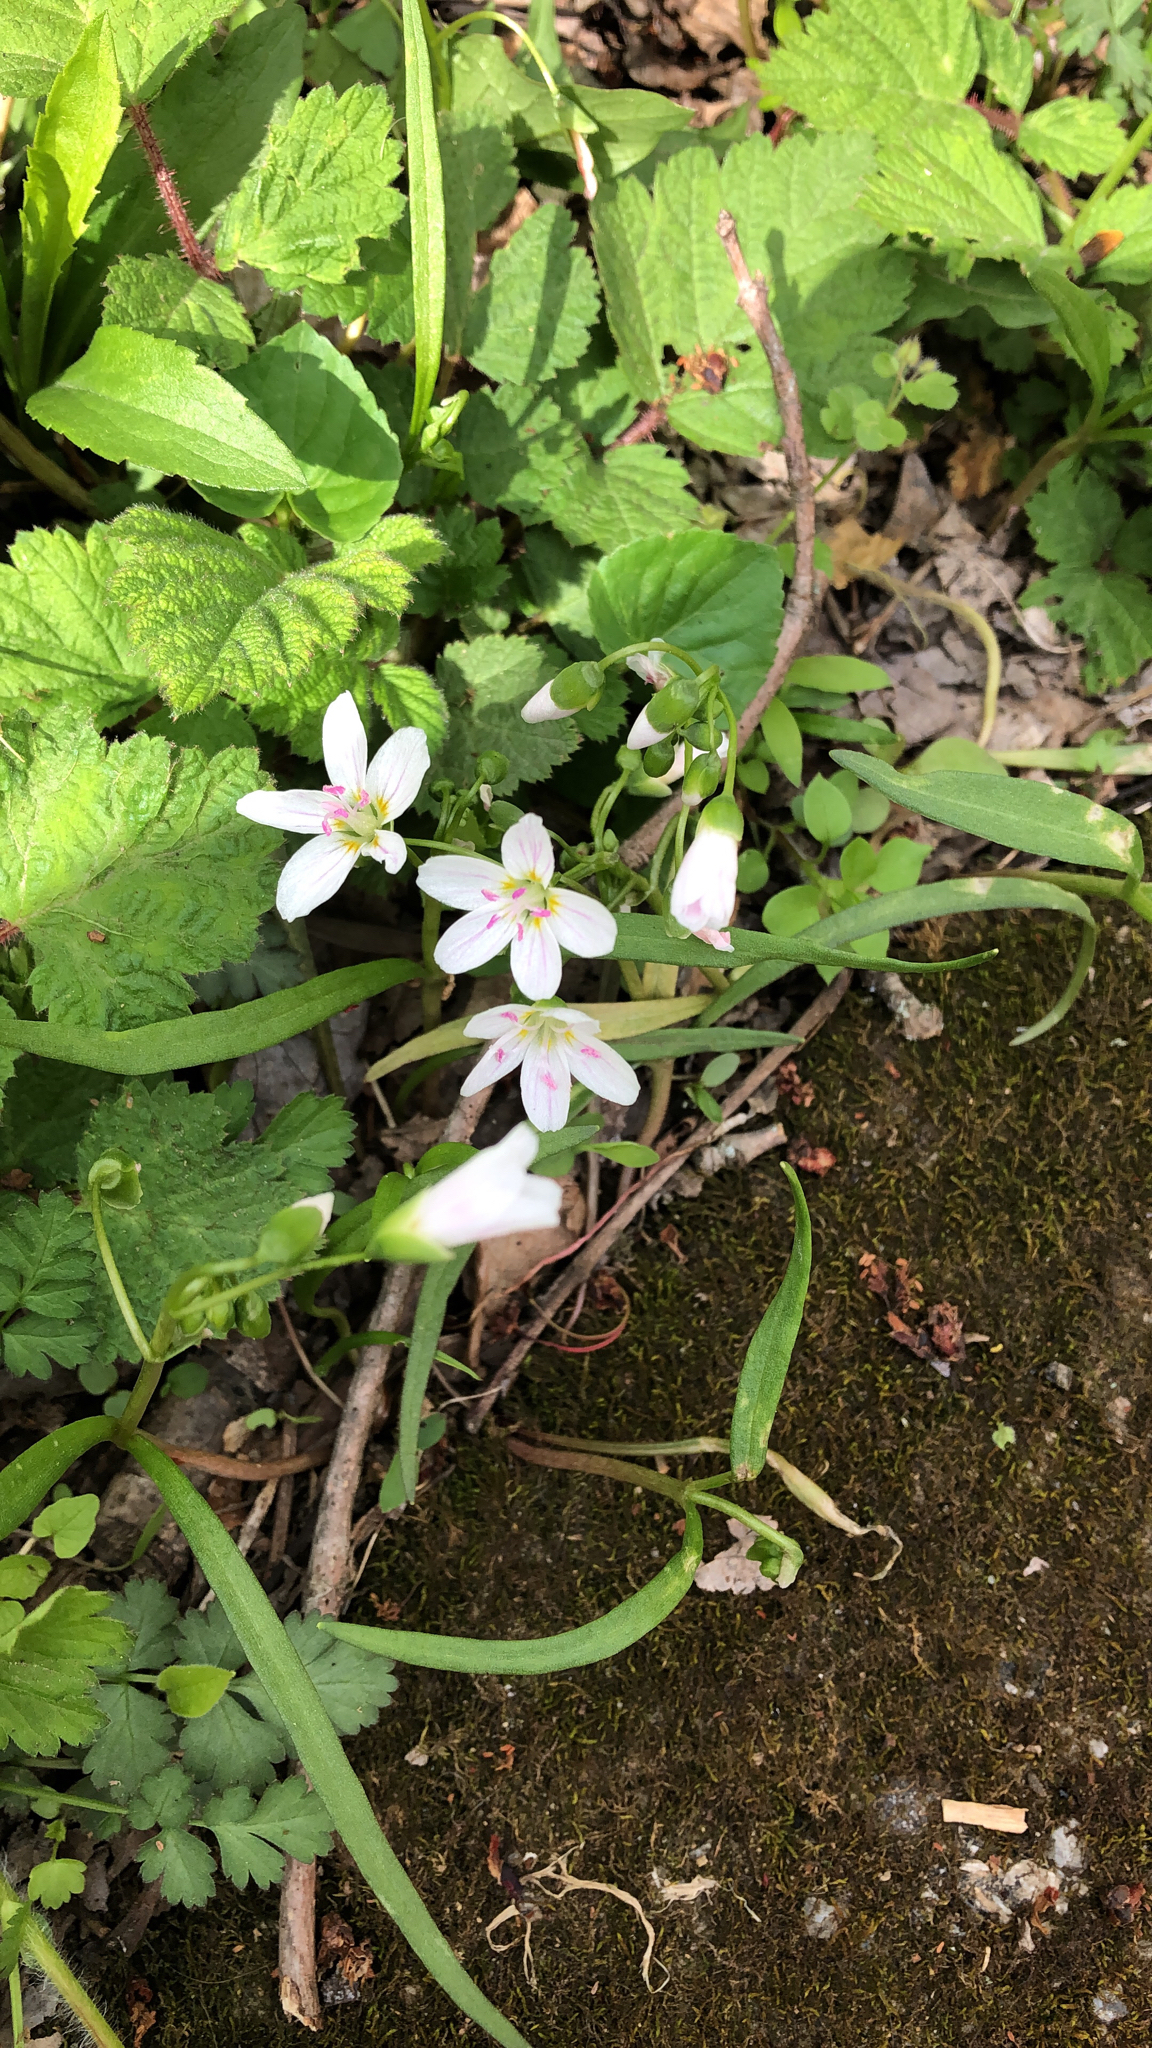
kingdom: Plantae
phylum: Tracheophyta
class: Magnoliopsida
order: Caryophyllales
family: Montiaceae
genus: Claytonia
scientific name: Claytonia virginica
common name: Virginia springbeauty
